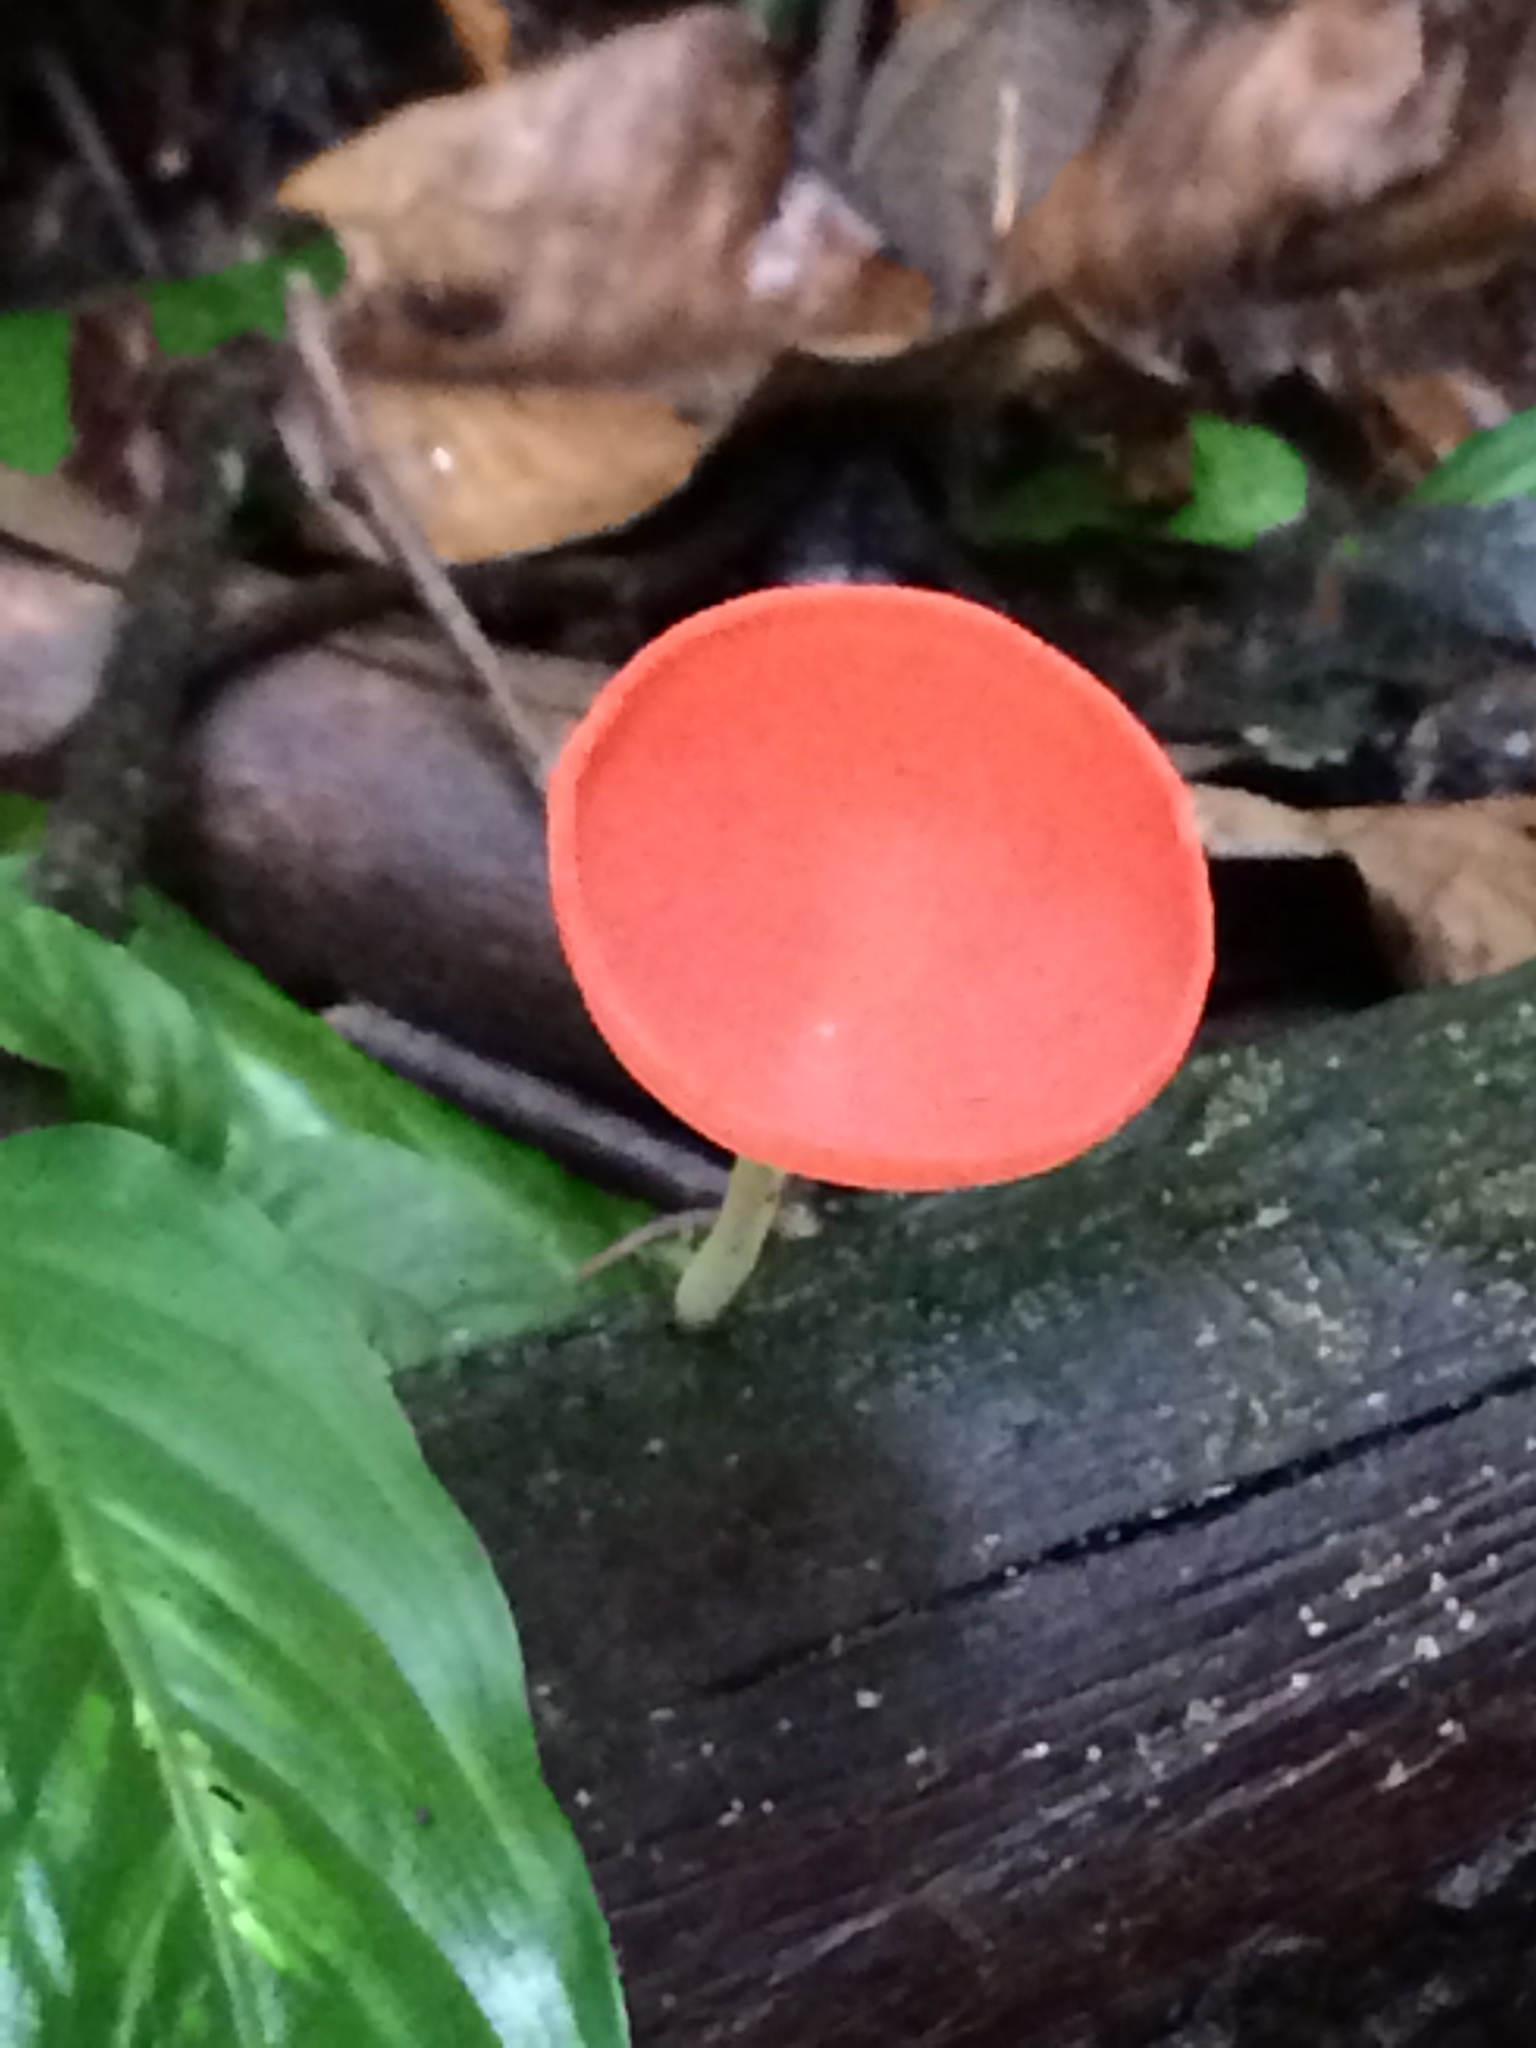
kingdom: Fungi
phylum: Ascomycota
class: Pezizomycetes
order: Pezizales
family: Sarcoscyphaceae
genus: Cookeina
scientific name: Cookeina speciosa
